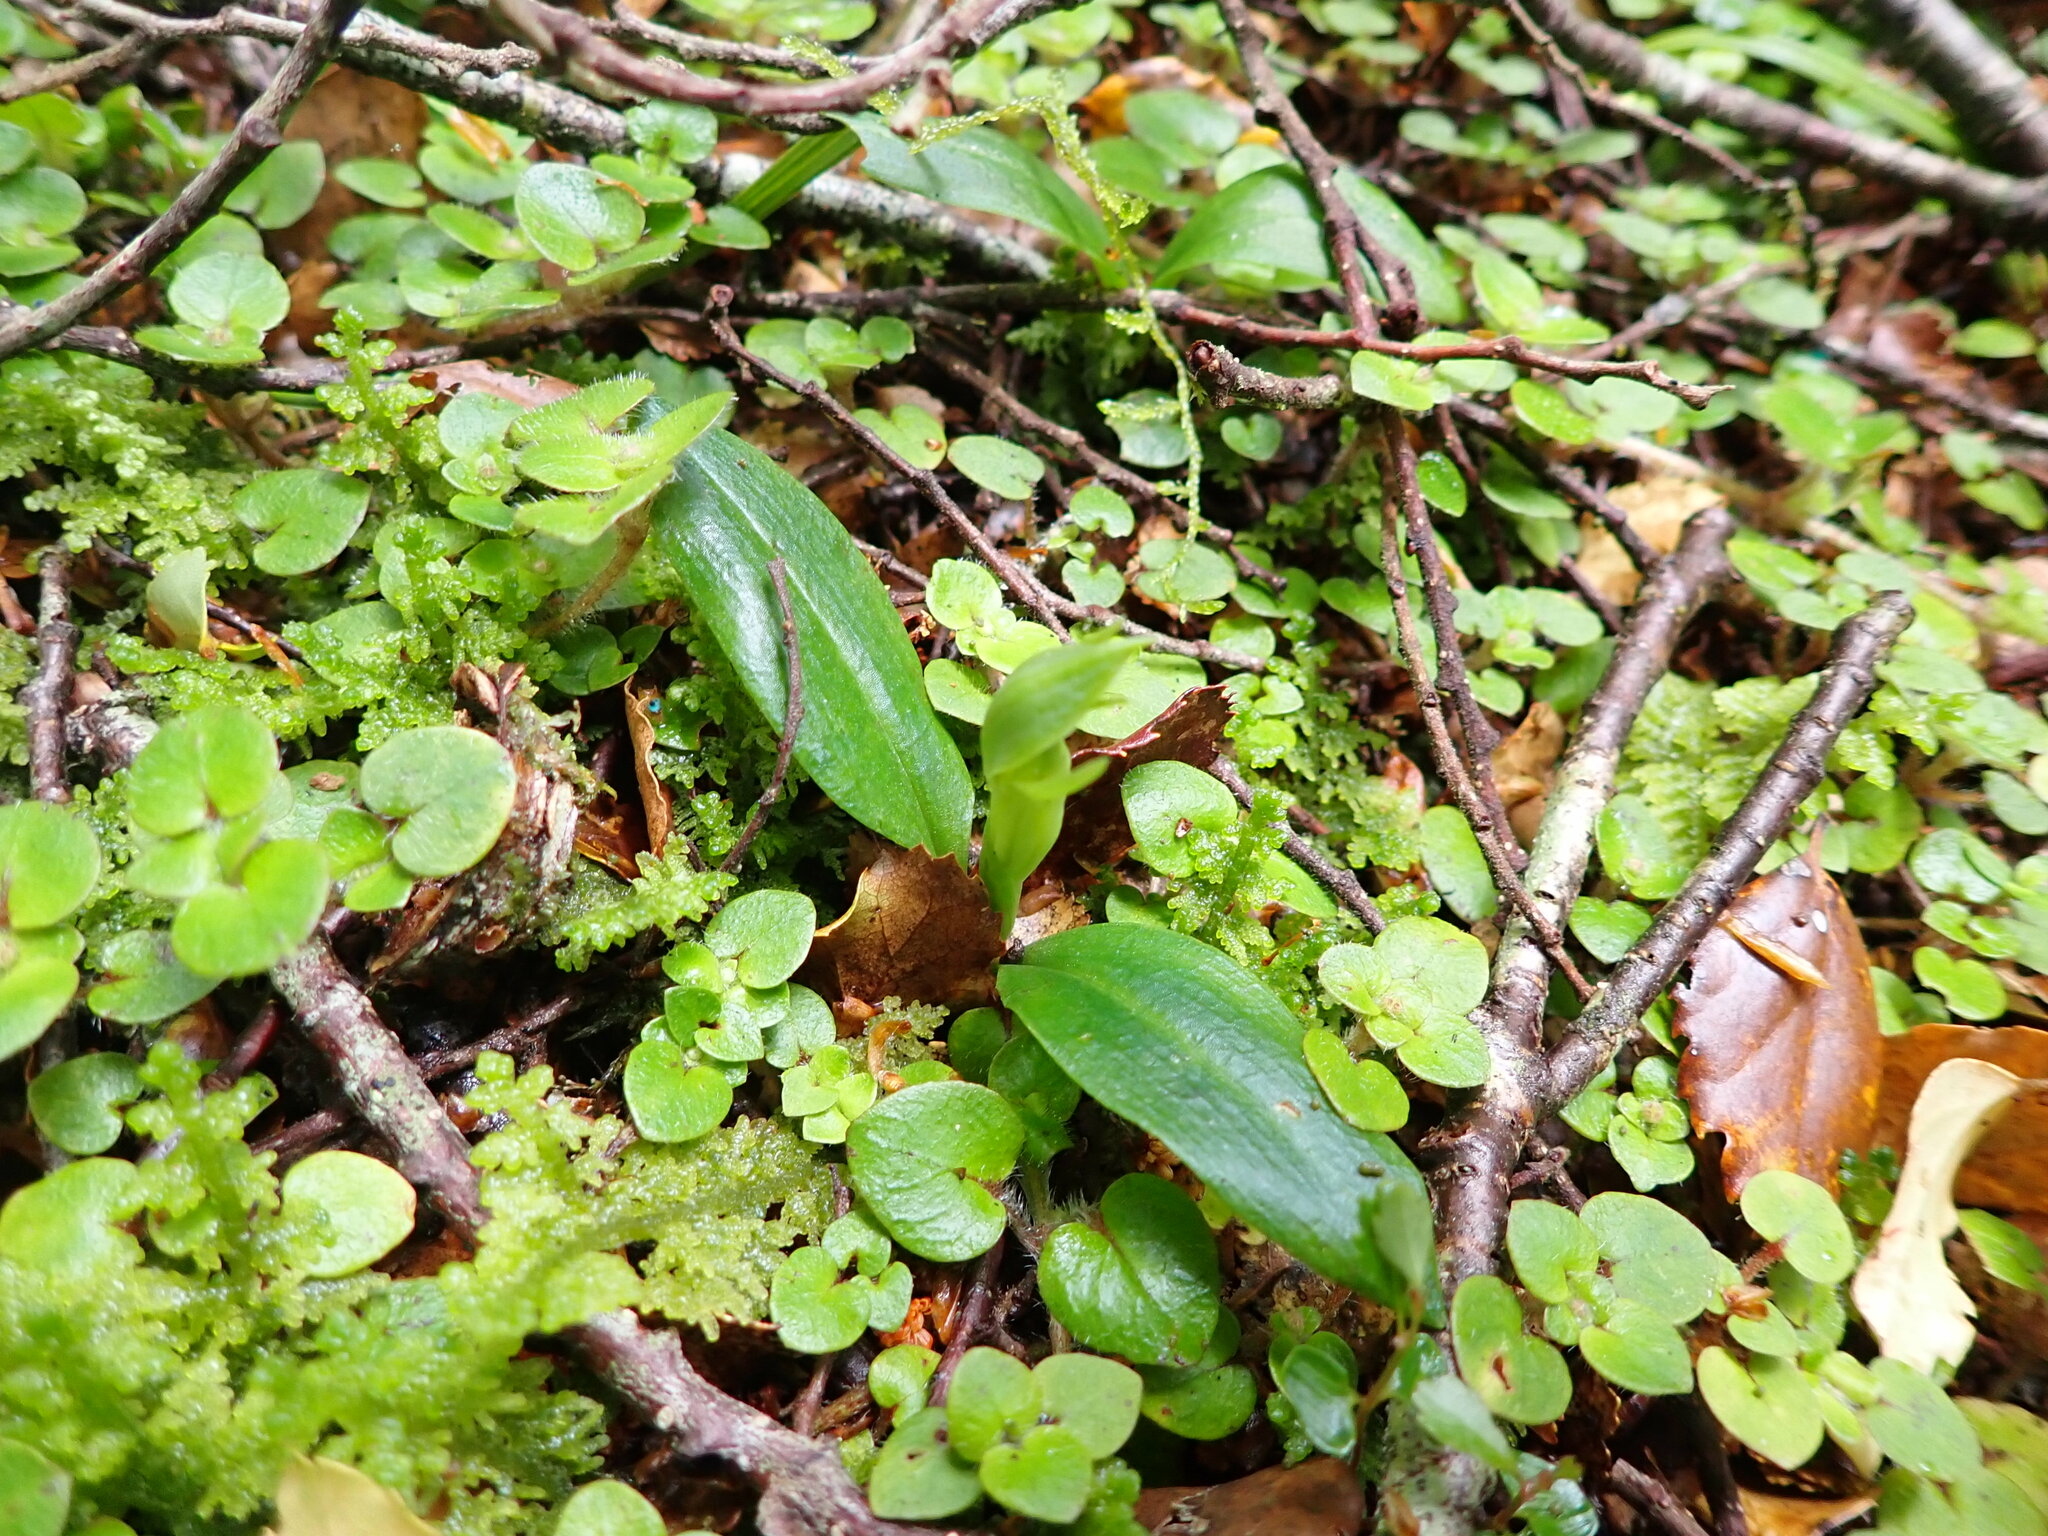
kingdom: Plantae
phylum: Tracheophyta
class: Liliopsida
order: Asparagales
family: Orchidaceae
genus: Chiloglottis
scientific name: Chiloglottis cornuta
